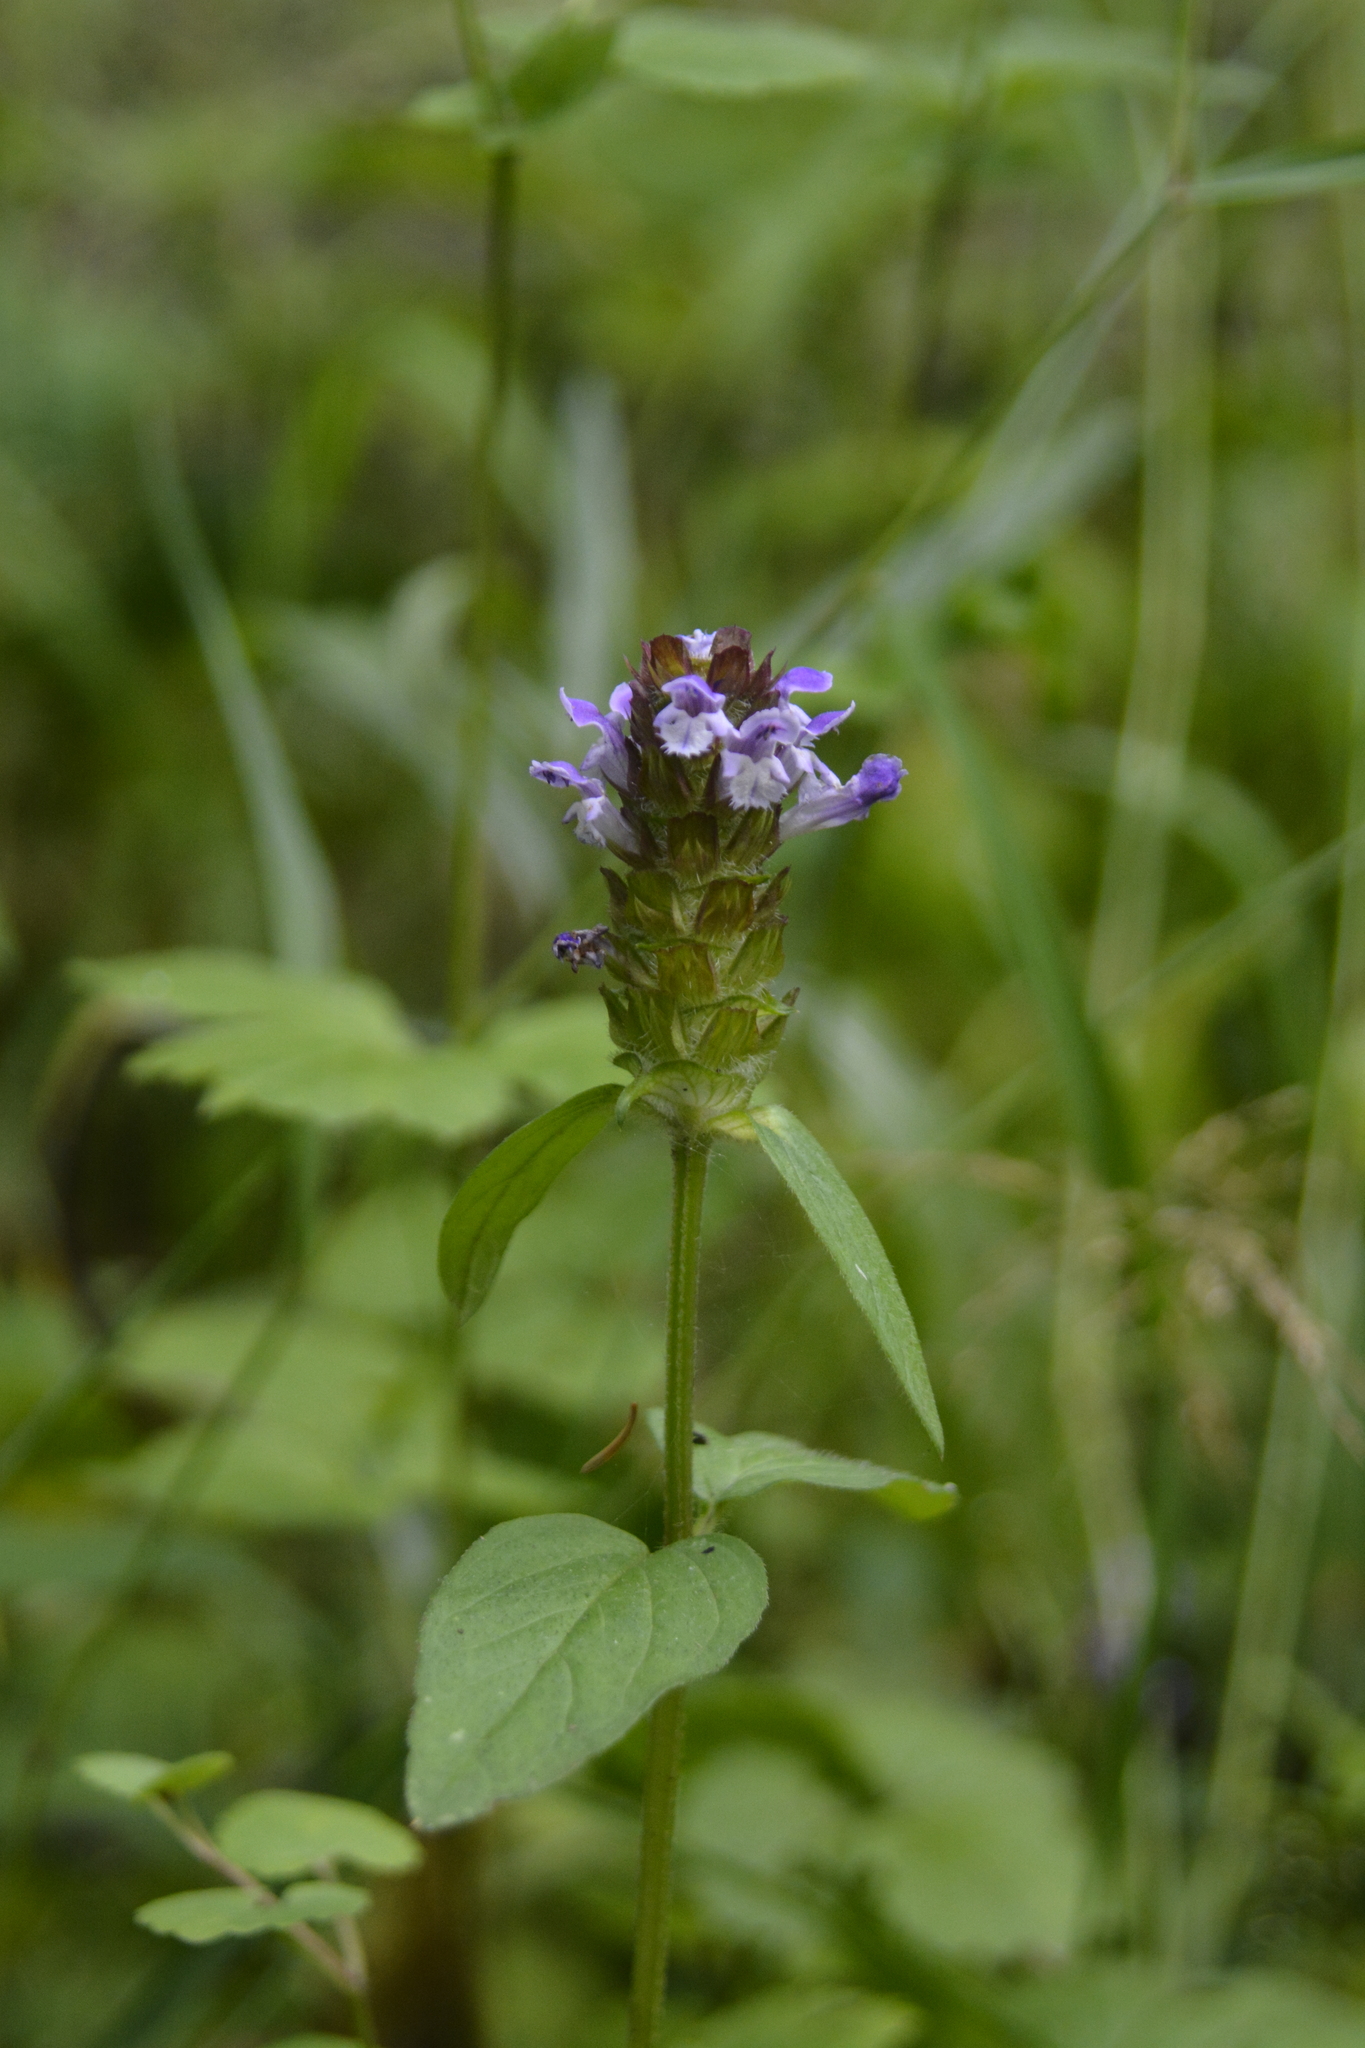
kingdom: Plantae
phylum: Tracheophyta
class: Magnoliopsida
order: Lamiales
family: Lamiaceae
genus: Prunella
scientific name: Prunella vulgaris
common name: Heal-all
